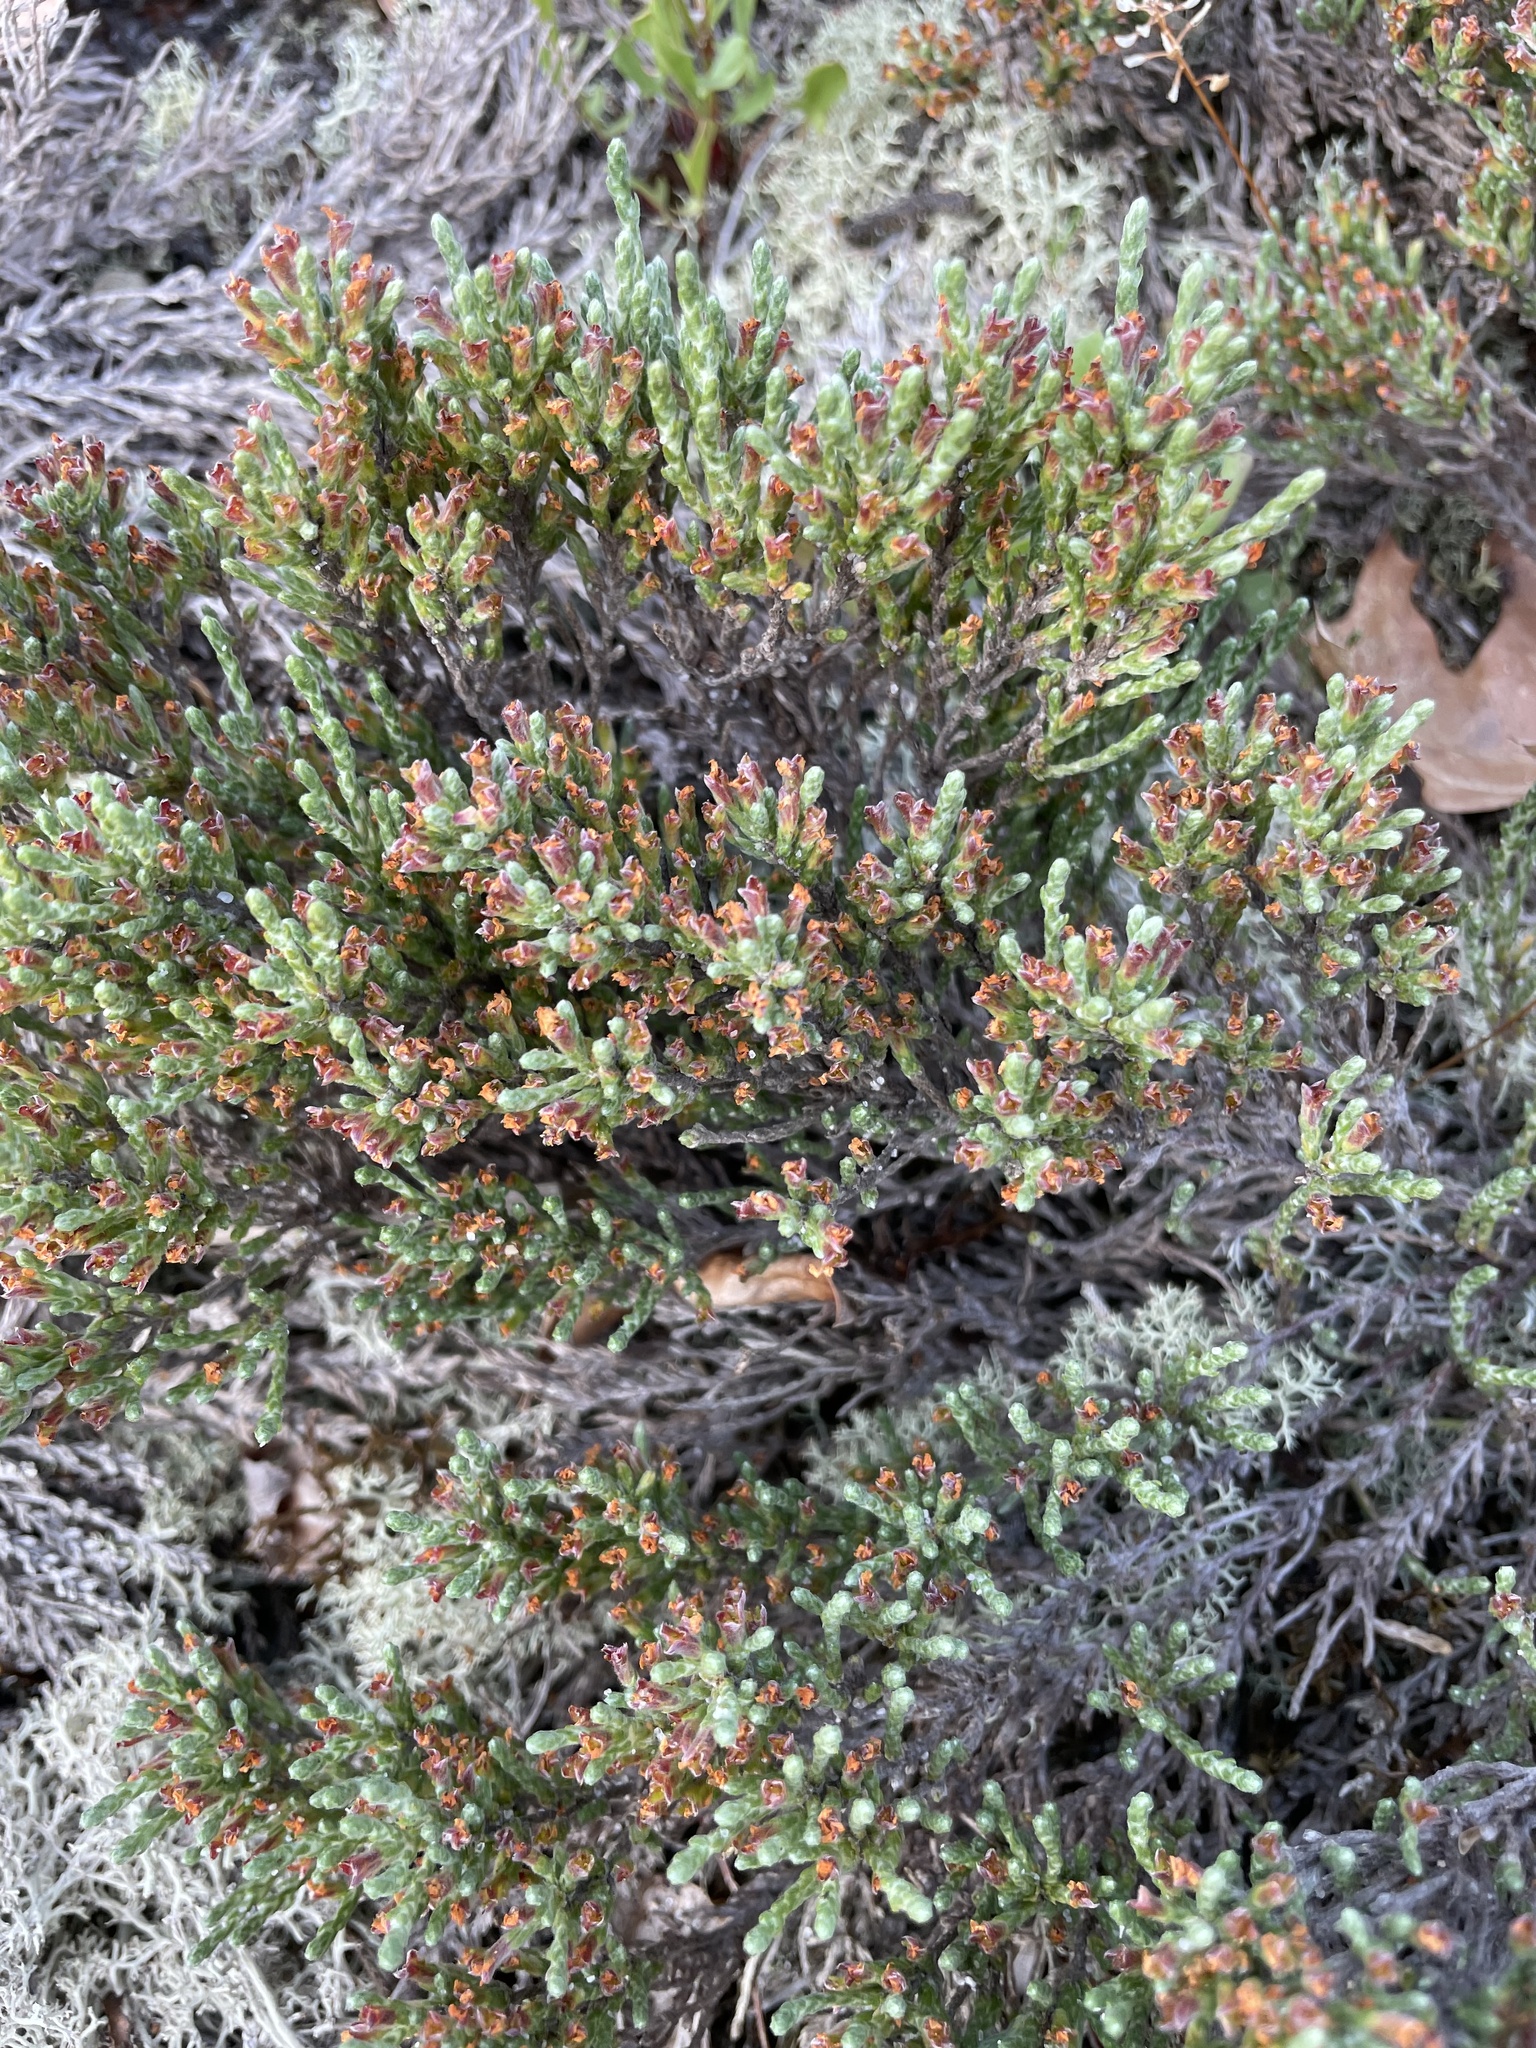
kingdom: Plantae
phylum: Tracheophyta
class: Magnoliopsida
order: Malvales
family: Cistaceae
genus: Hudsonia
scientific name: Hudsonia tomentosa
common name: Beach-heath
